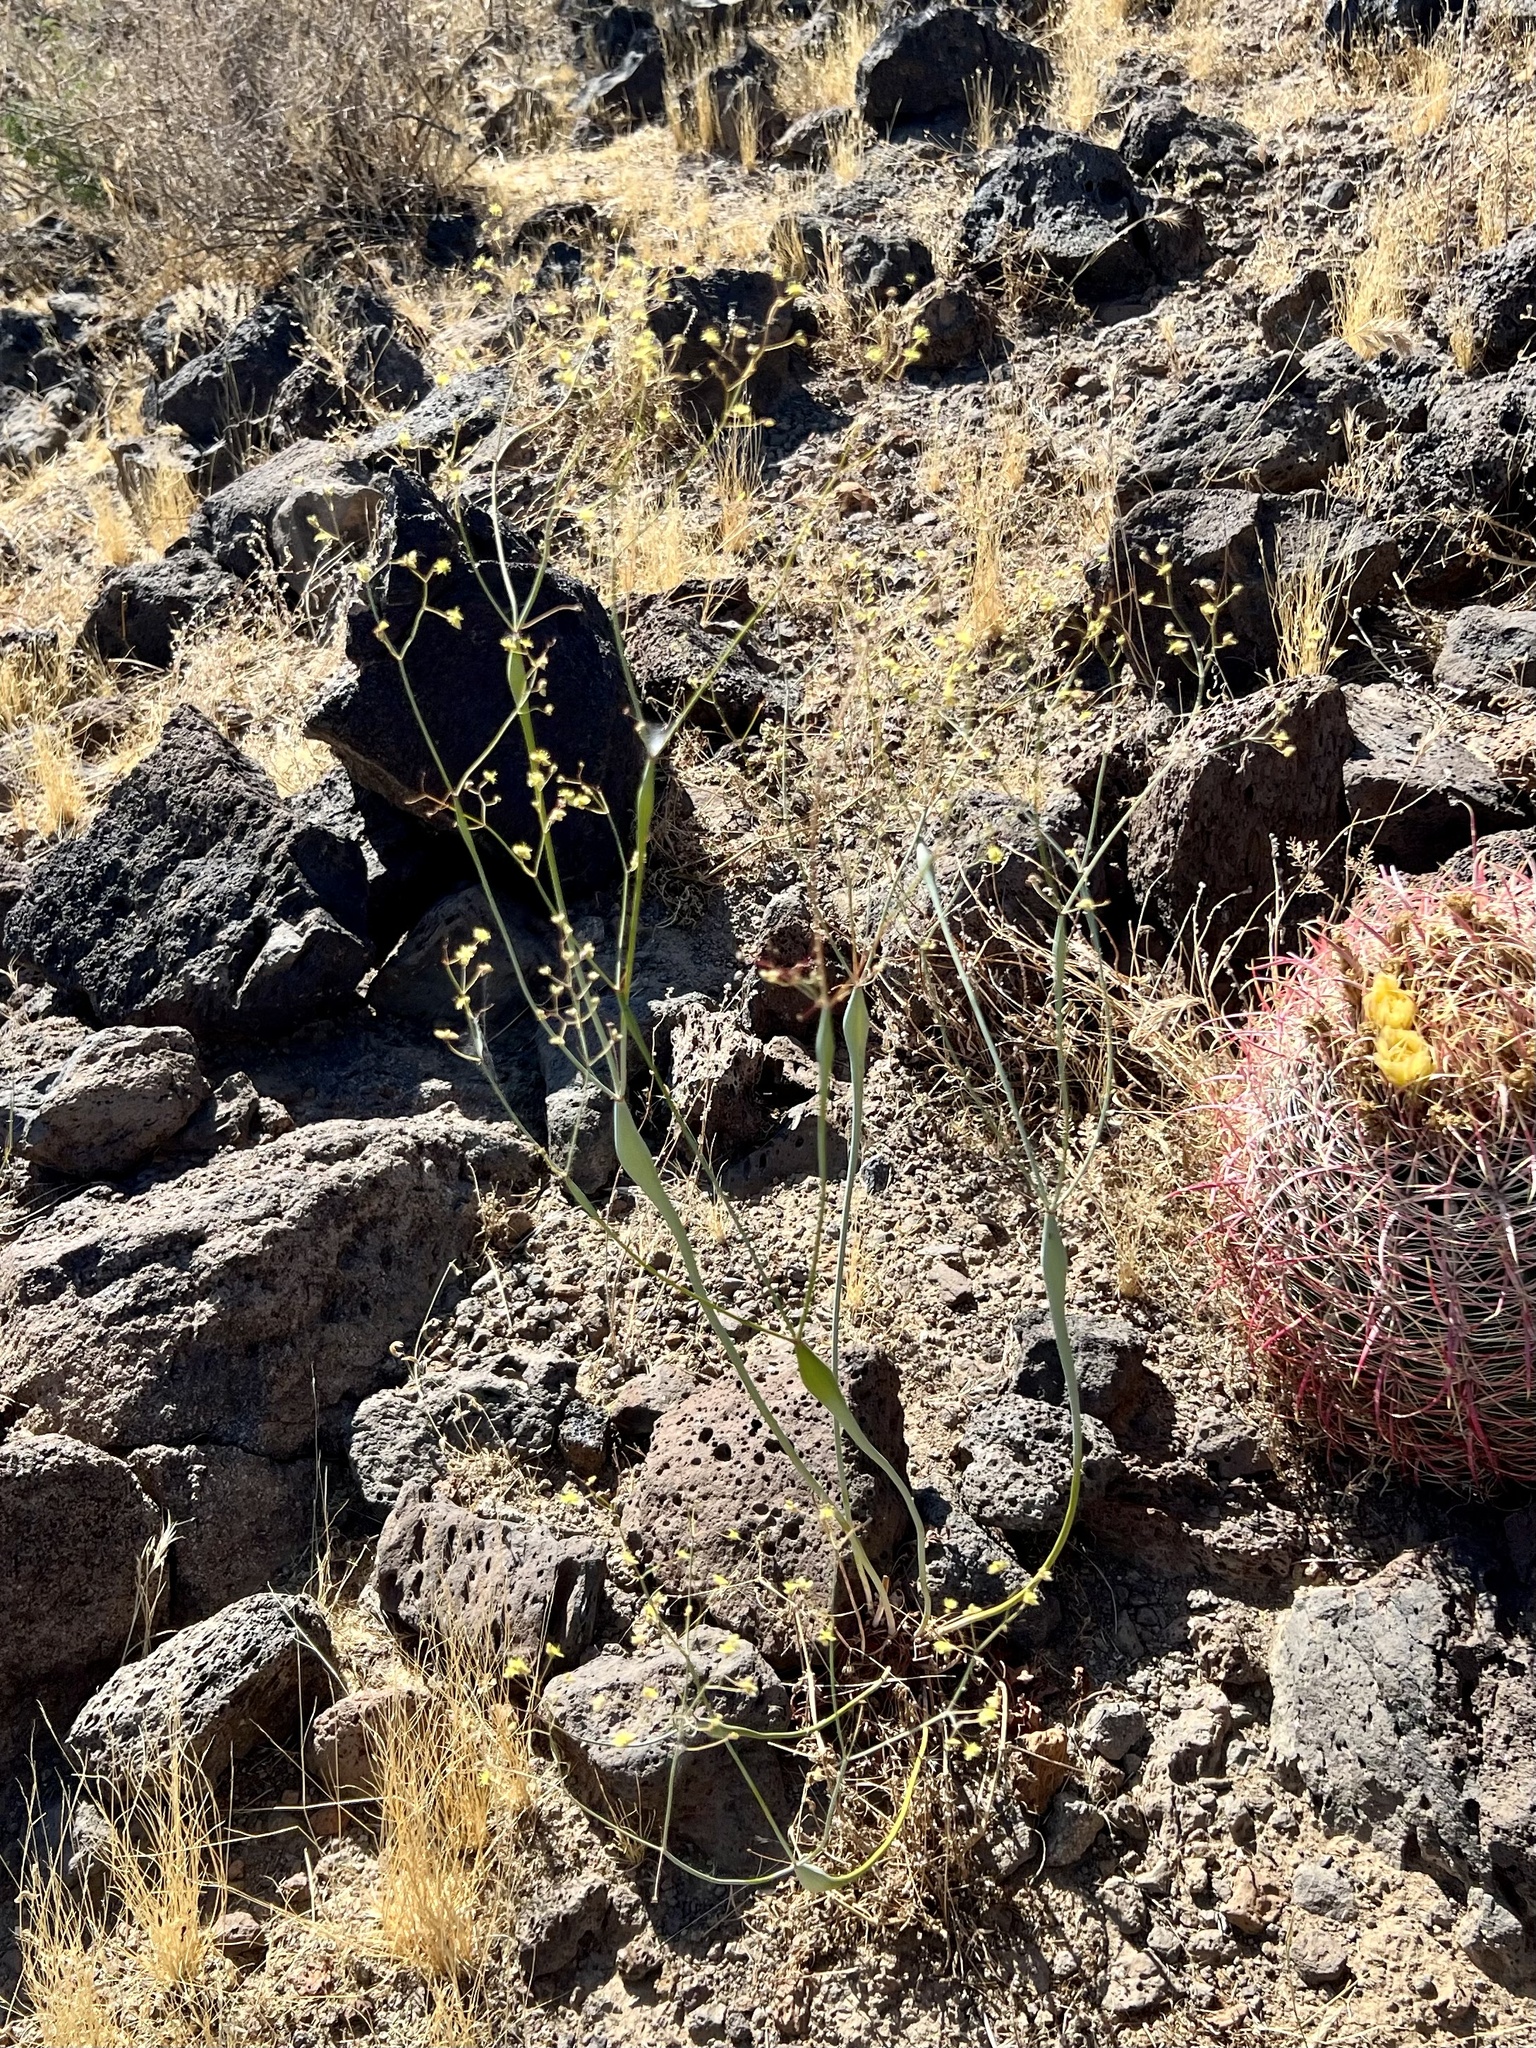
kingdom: Plantae
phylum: Tracheophyta
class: Magnoliopsida
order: Caryophyllales
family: Polygonaceae
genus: Eriogonum
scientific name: Eriogonum inflatum
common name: Desert trumpet
